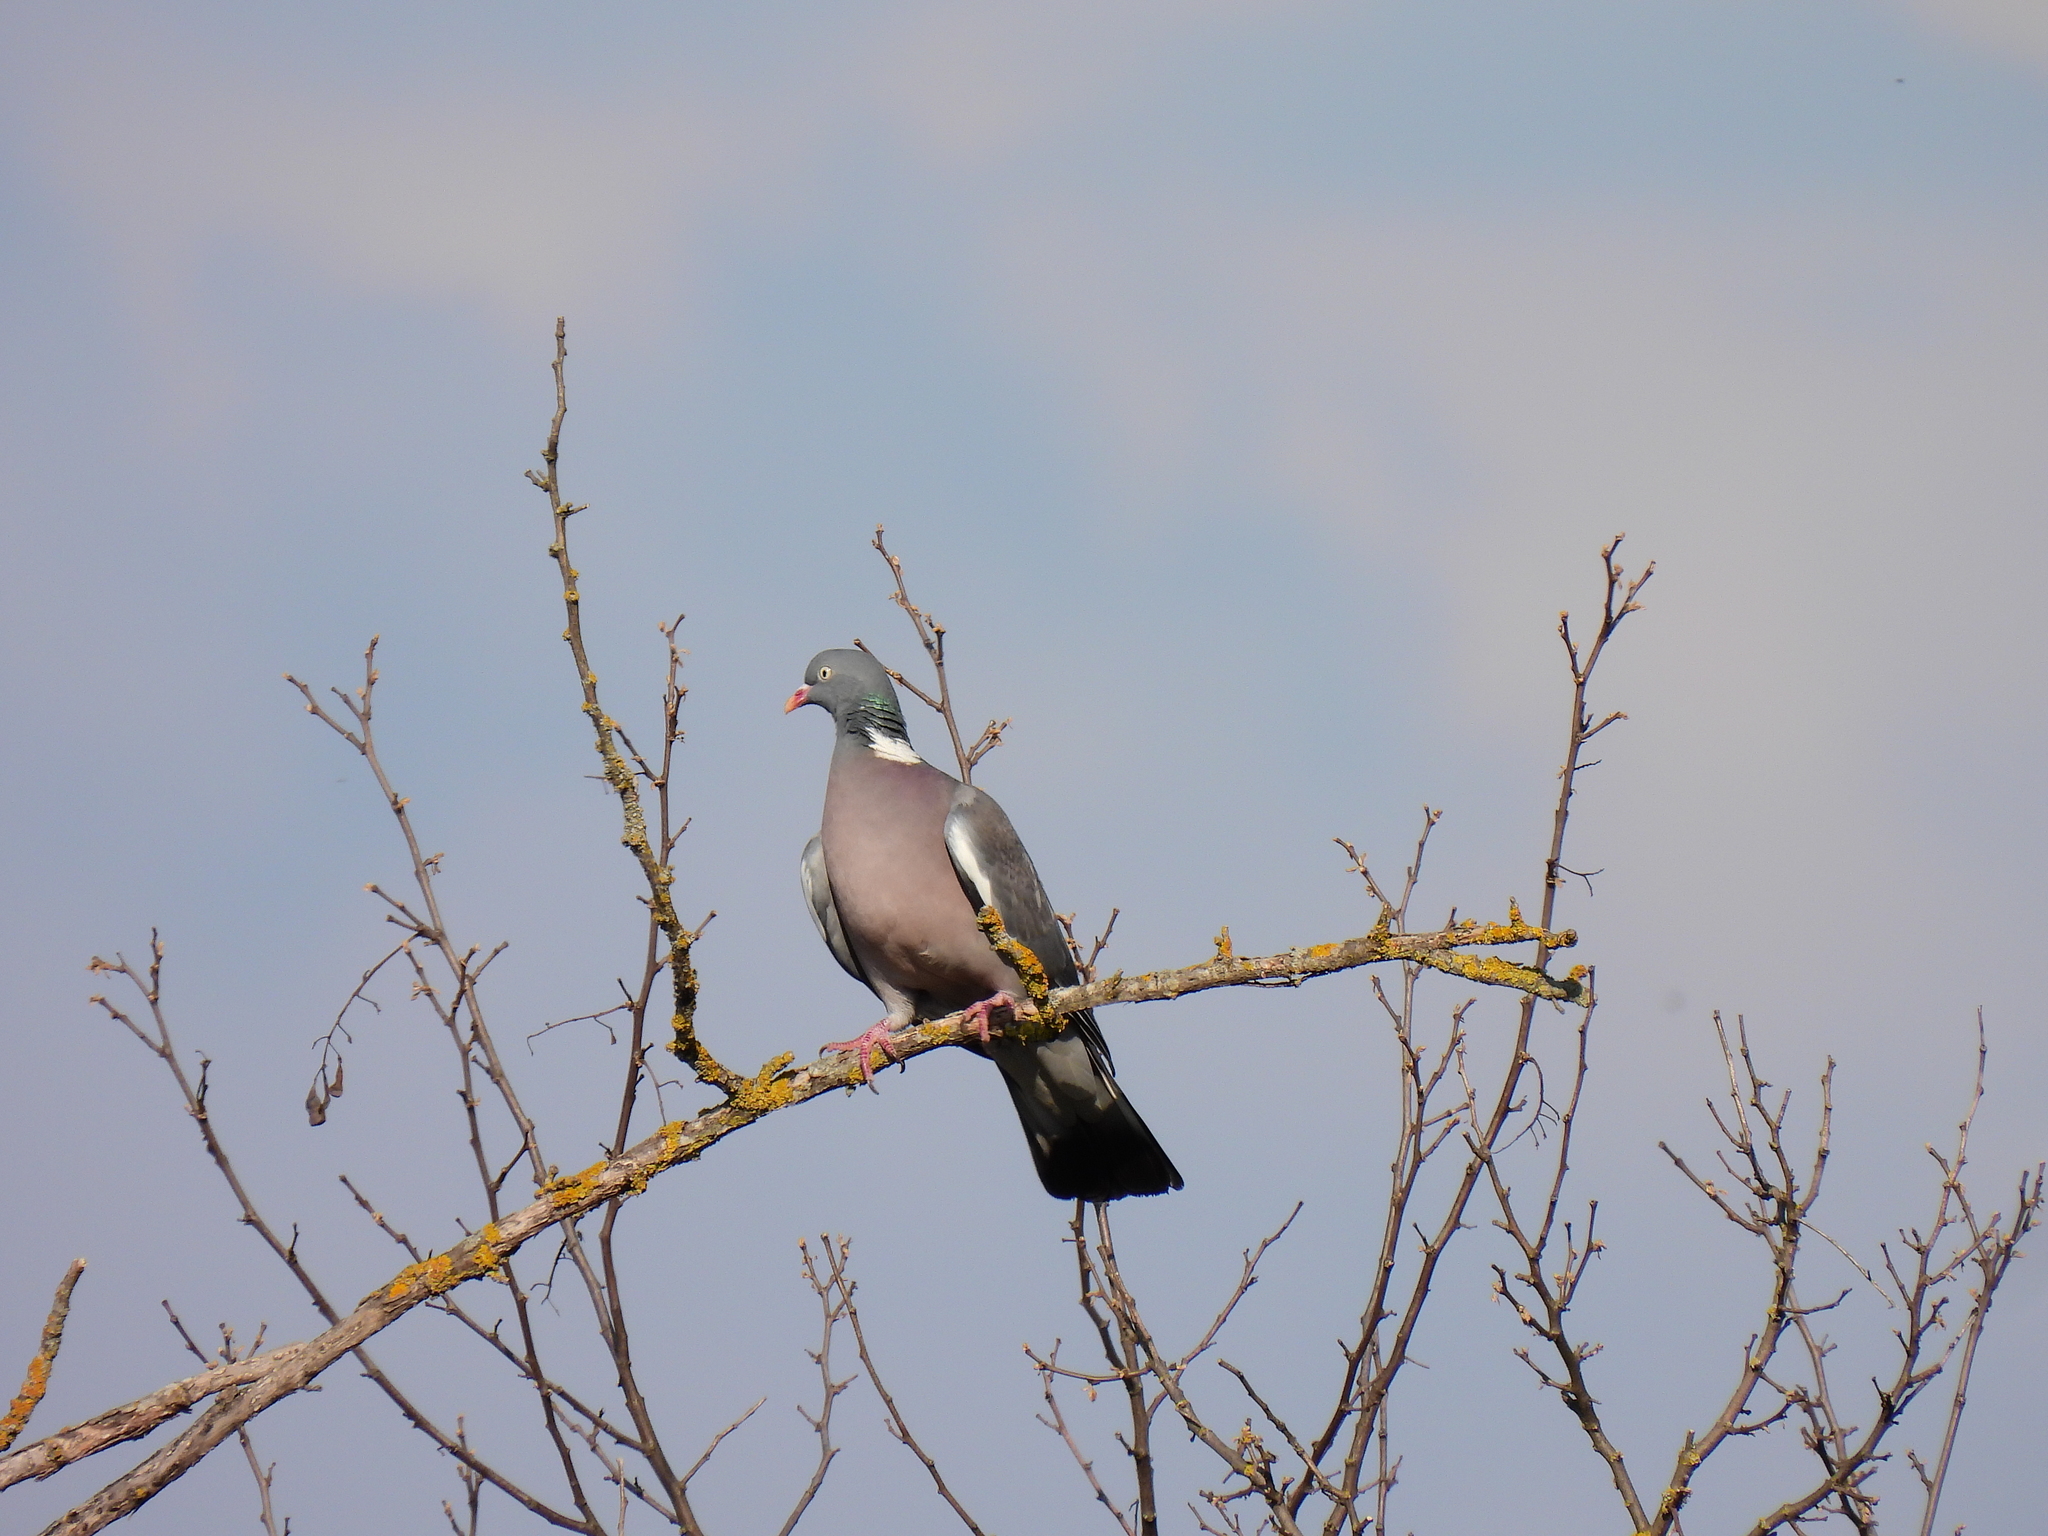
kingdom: Animalia
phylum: Chordata
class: Aves
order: Columbiformes
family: Columbidae
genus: Columba
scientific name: Columba palumbus
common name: Common wood pigeon
